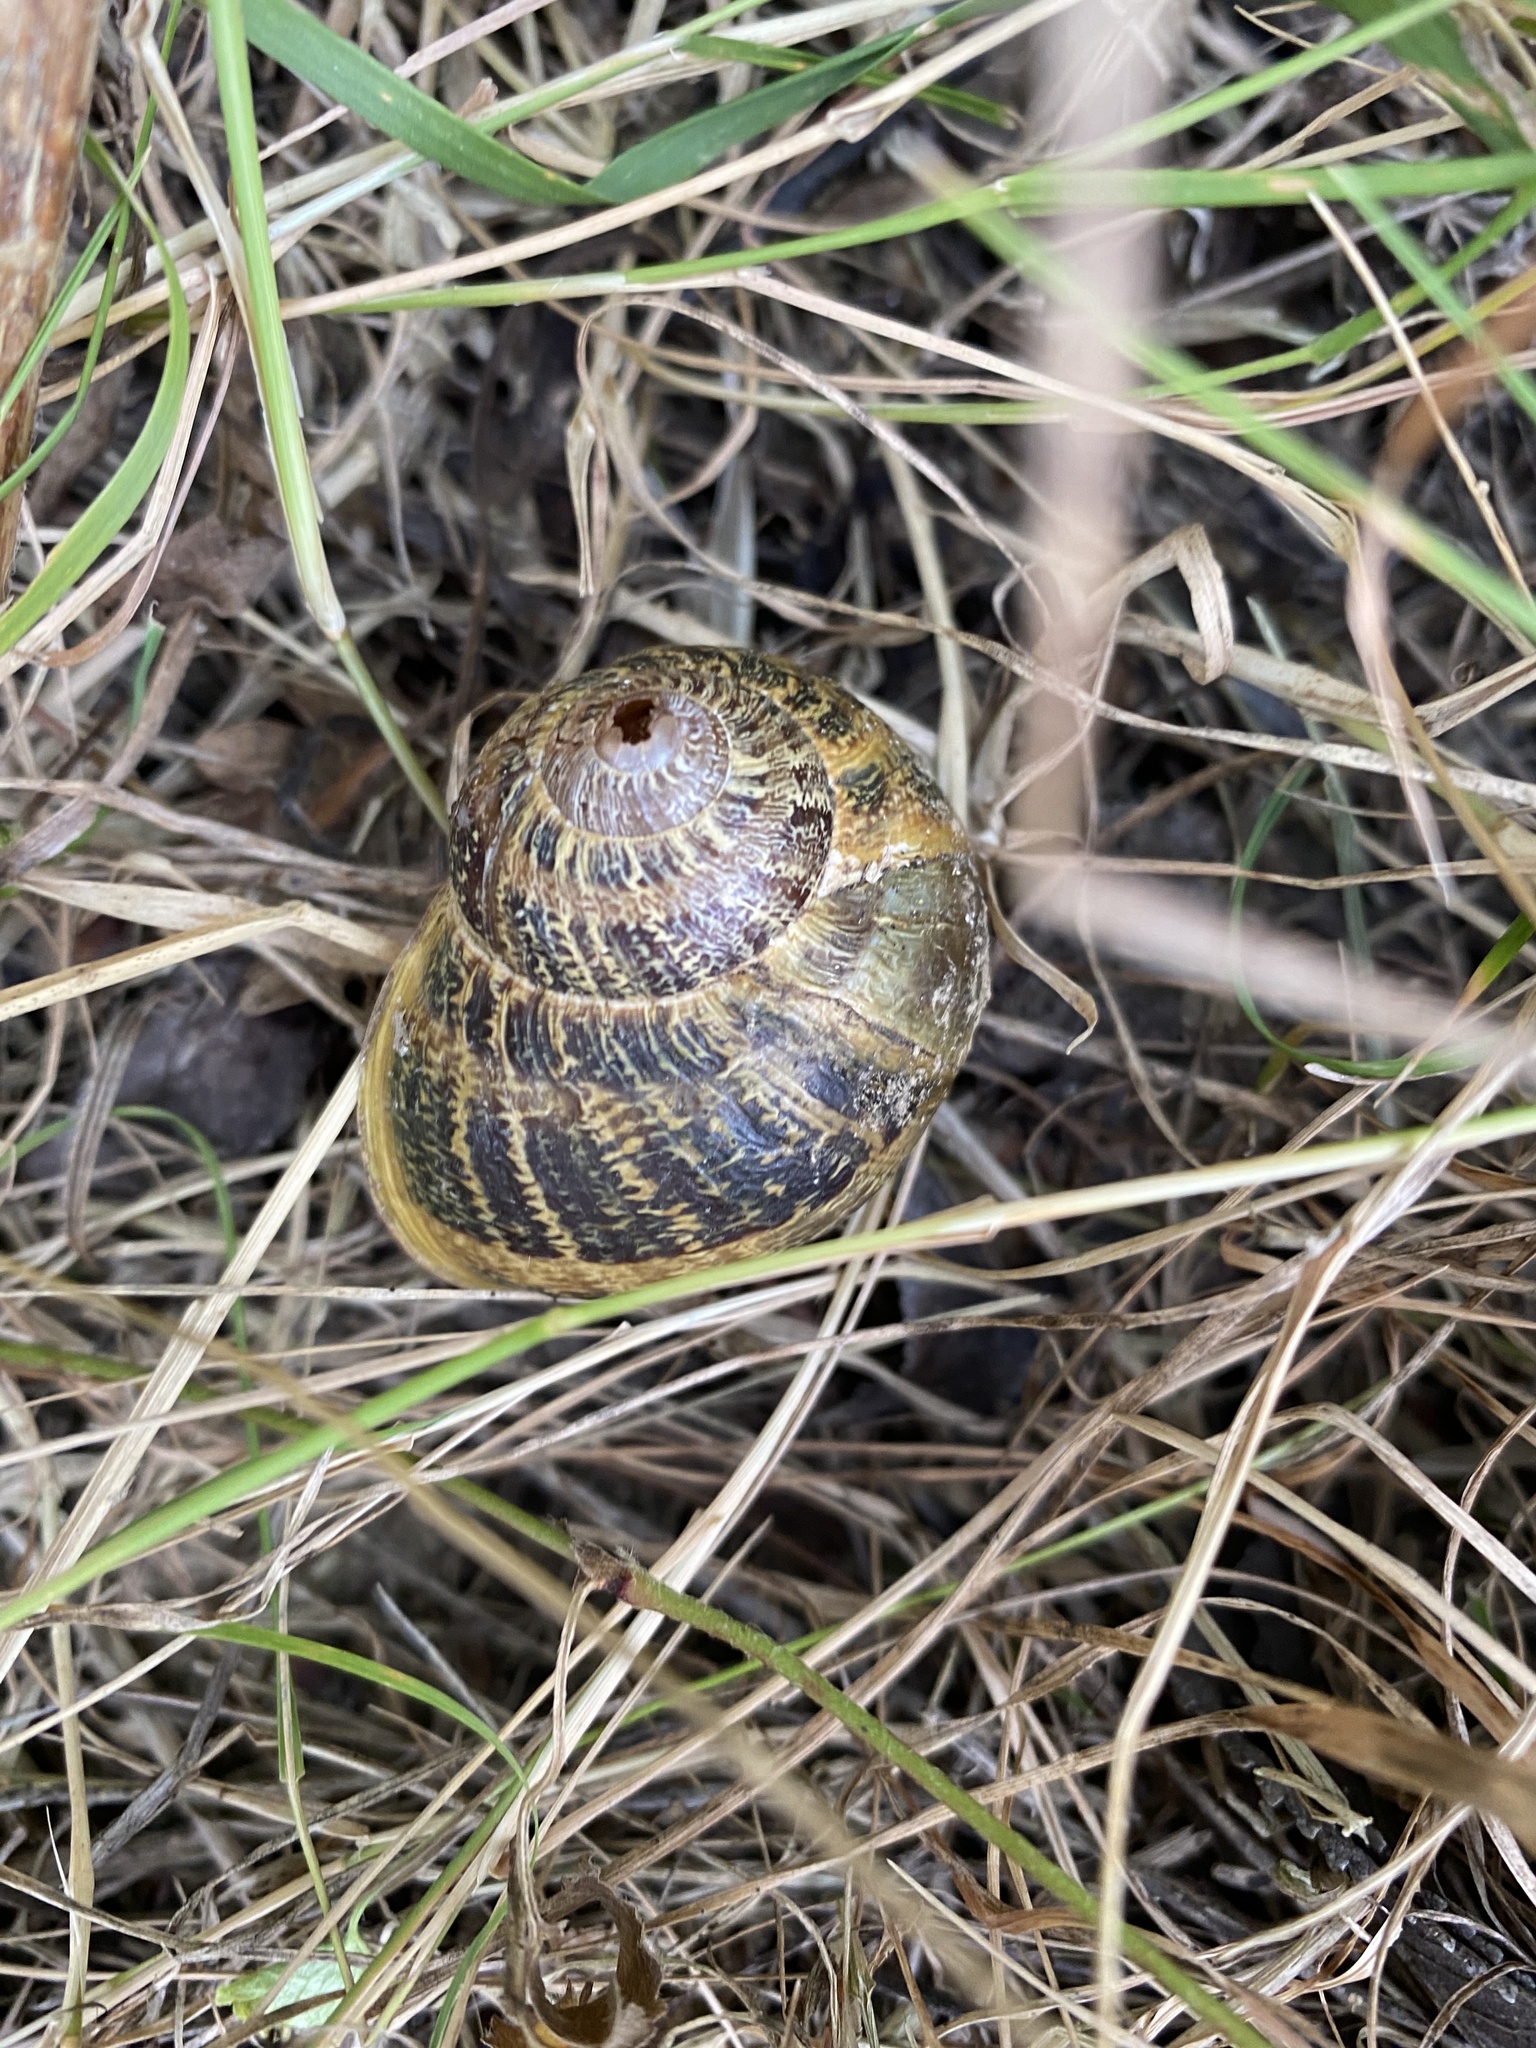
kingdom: Animalia
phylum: Mollusca
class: Gastropoda
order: Stylommatophora
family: Helicidae
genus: Cornu
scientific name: Cornu aspersum
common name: Brown garden snail
